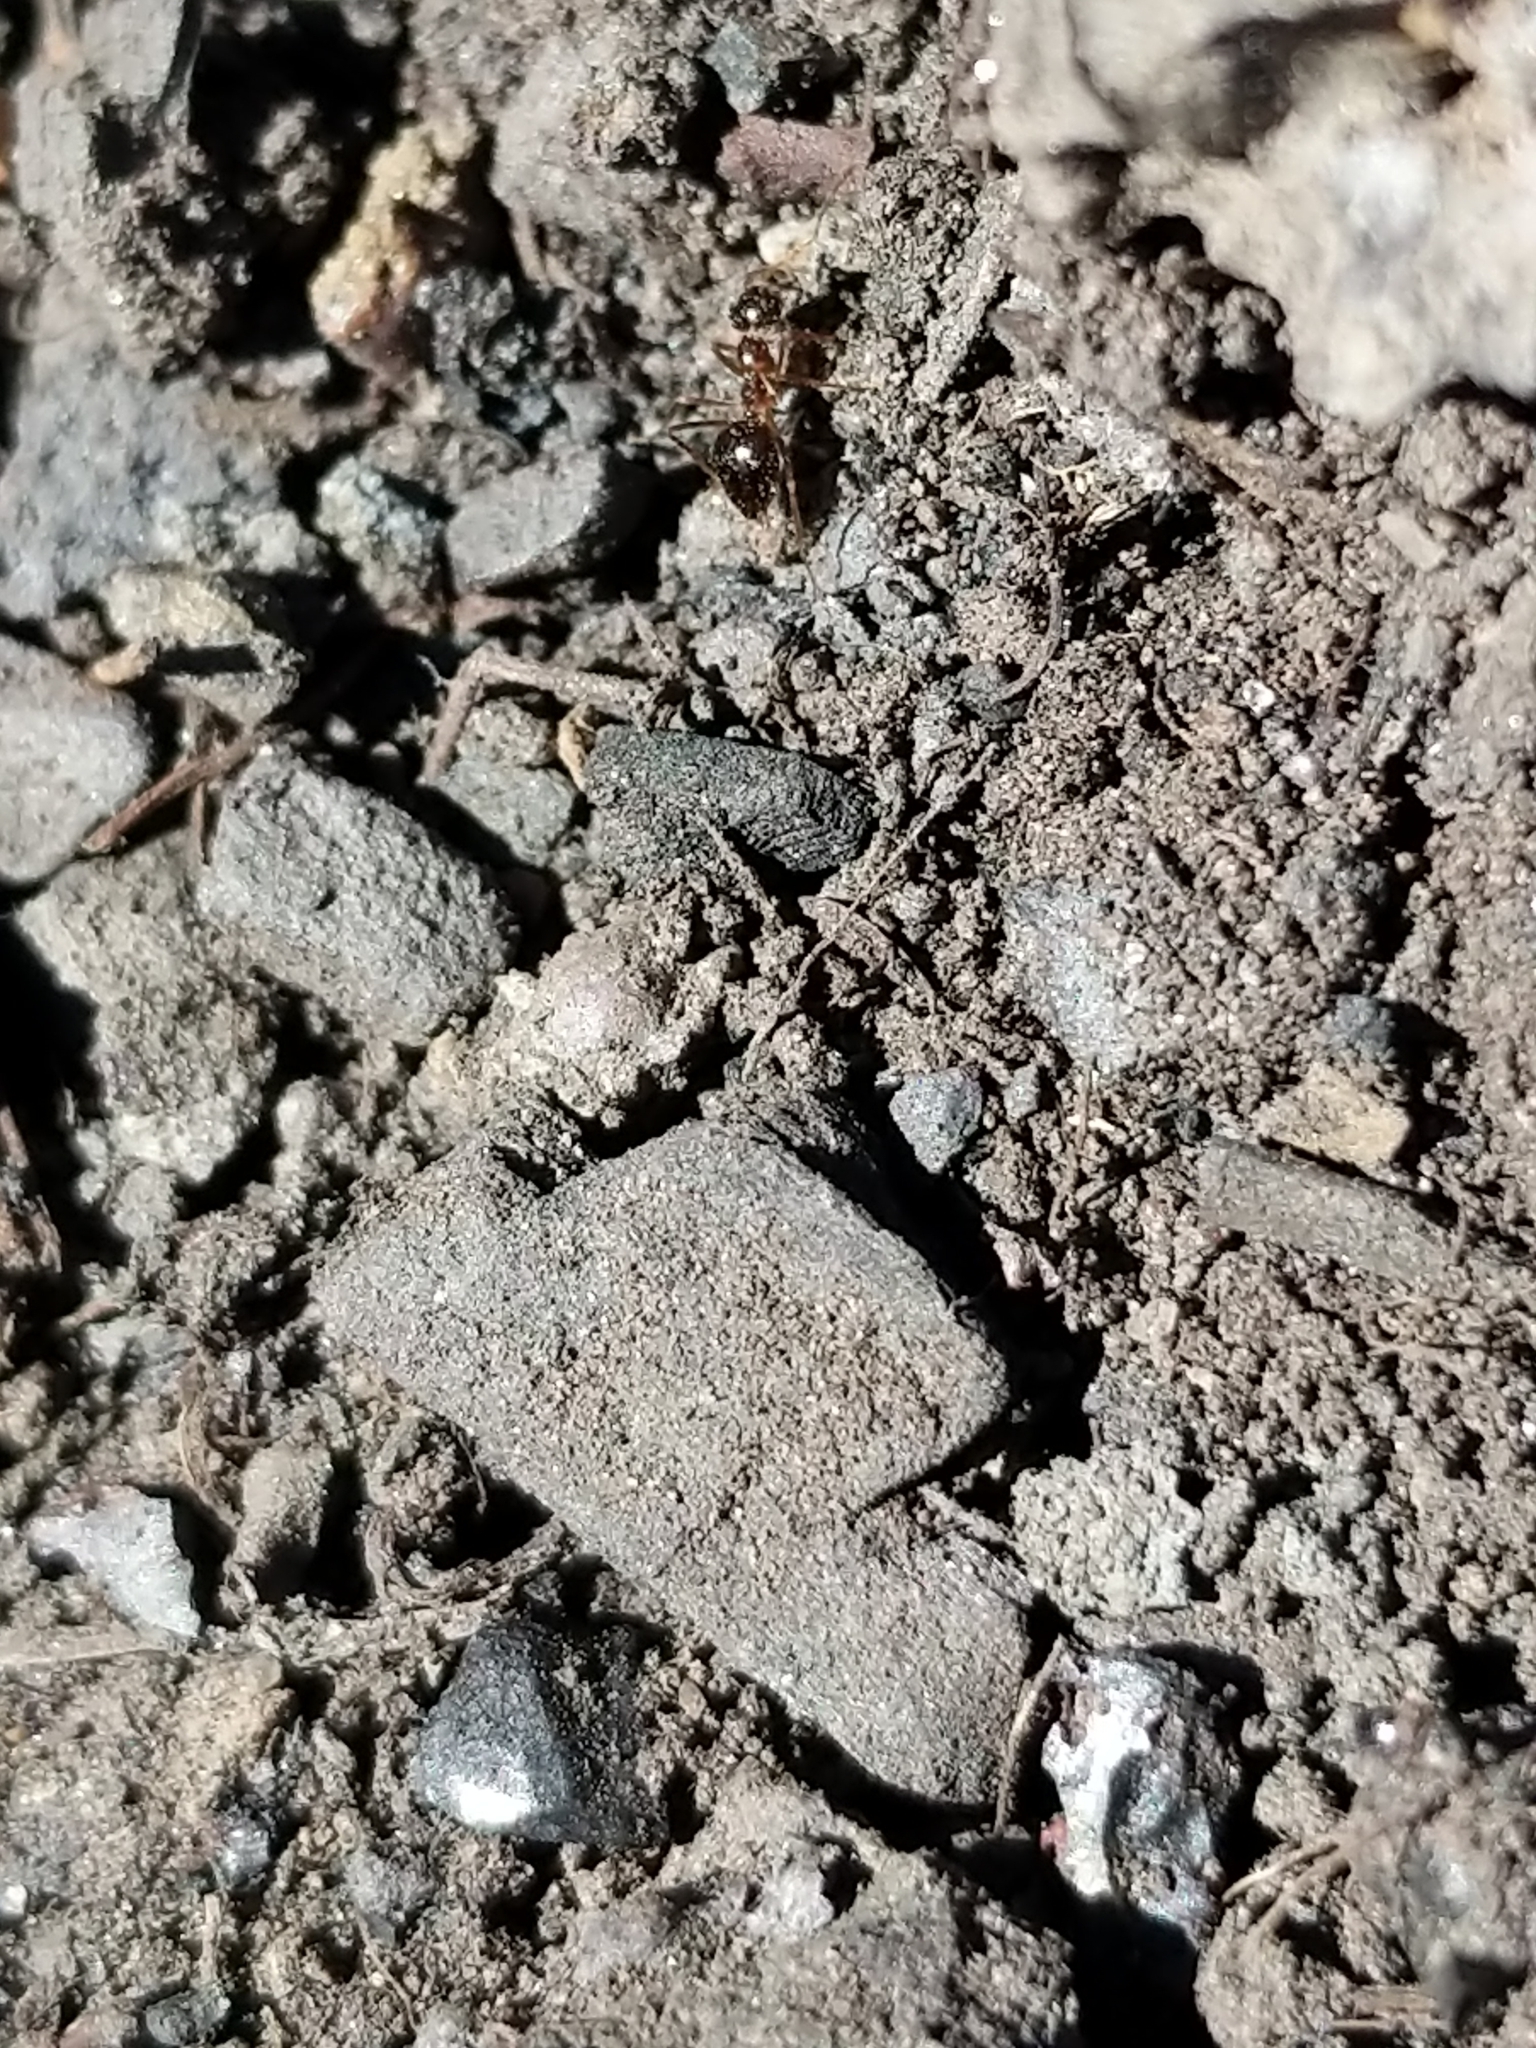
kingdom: Animalia
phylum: Arthropoda
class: Insecta
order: Hymenoptera
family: Formicidae
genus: Prenolepis
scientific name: Prenolepis imparis
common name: Small honey ant
